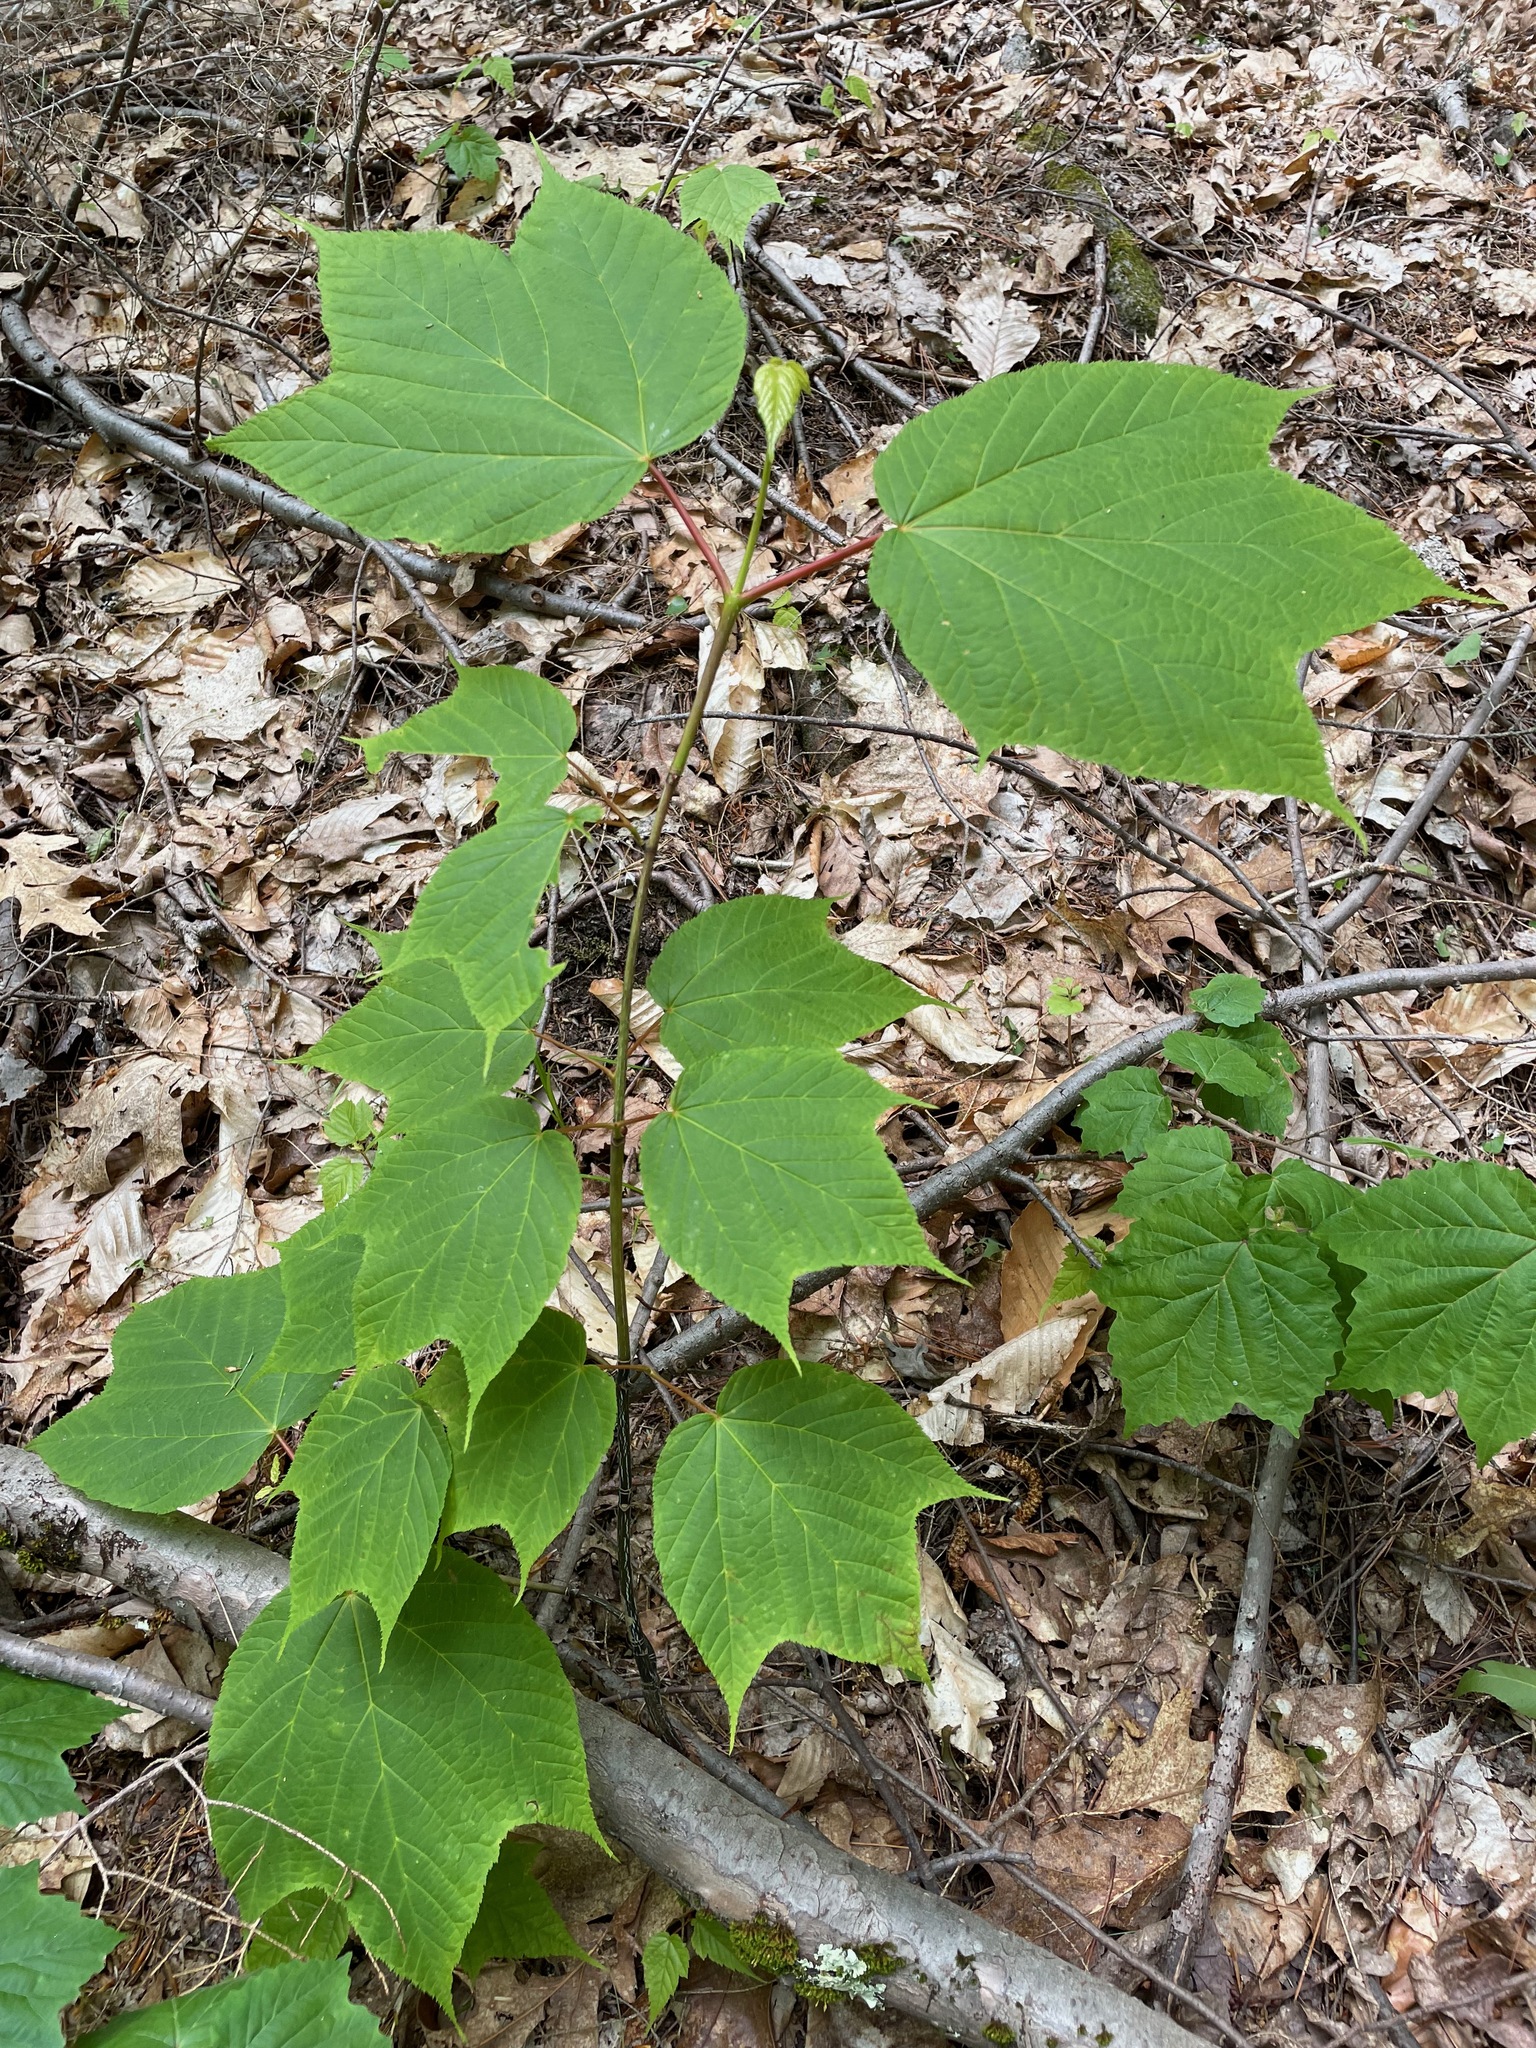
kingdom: Plantae
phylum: Tracheophyta
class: Magnoliopsida
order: Sapindales
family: Sapindaceae
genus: Acer
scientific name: Acer pensylvanicum
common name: Moosewood
